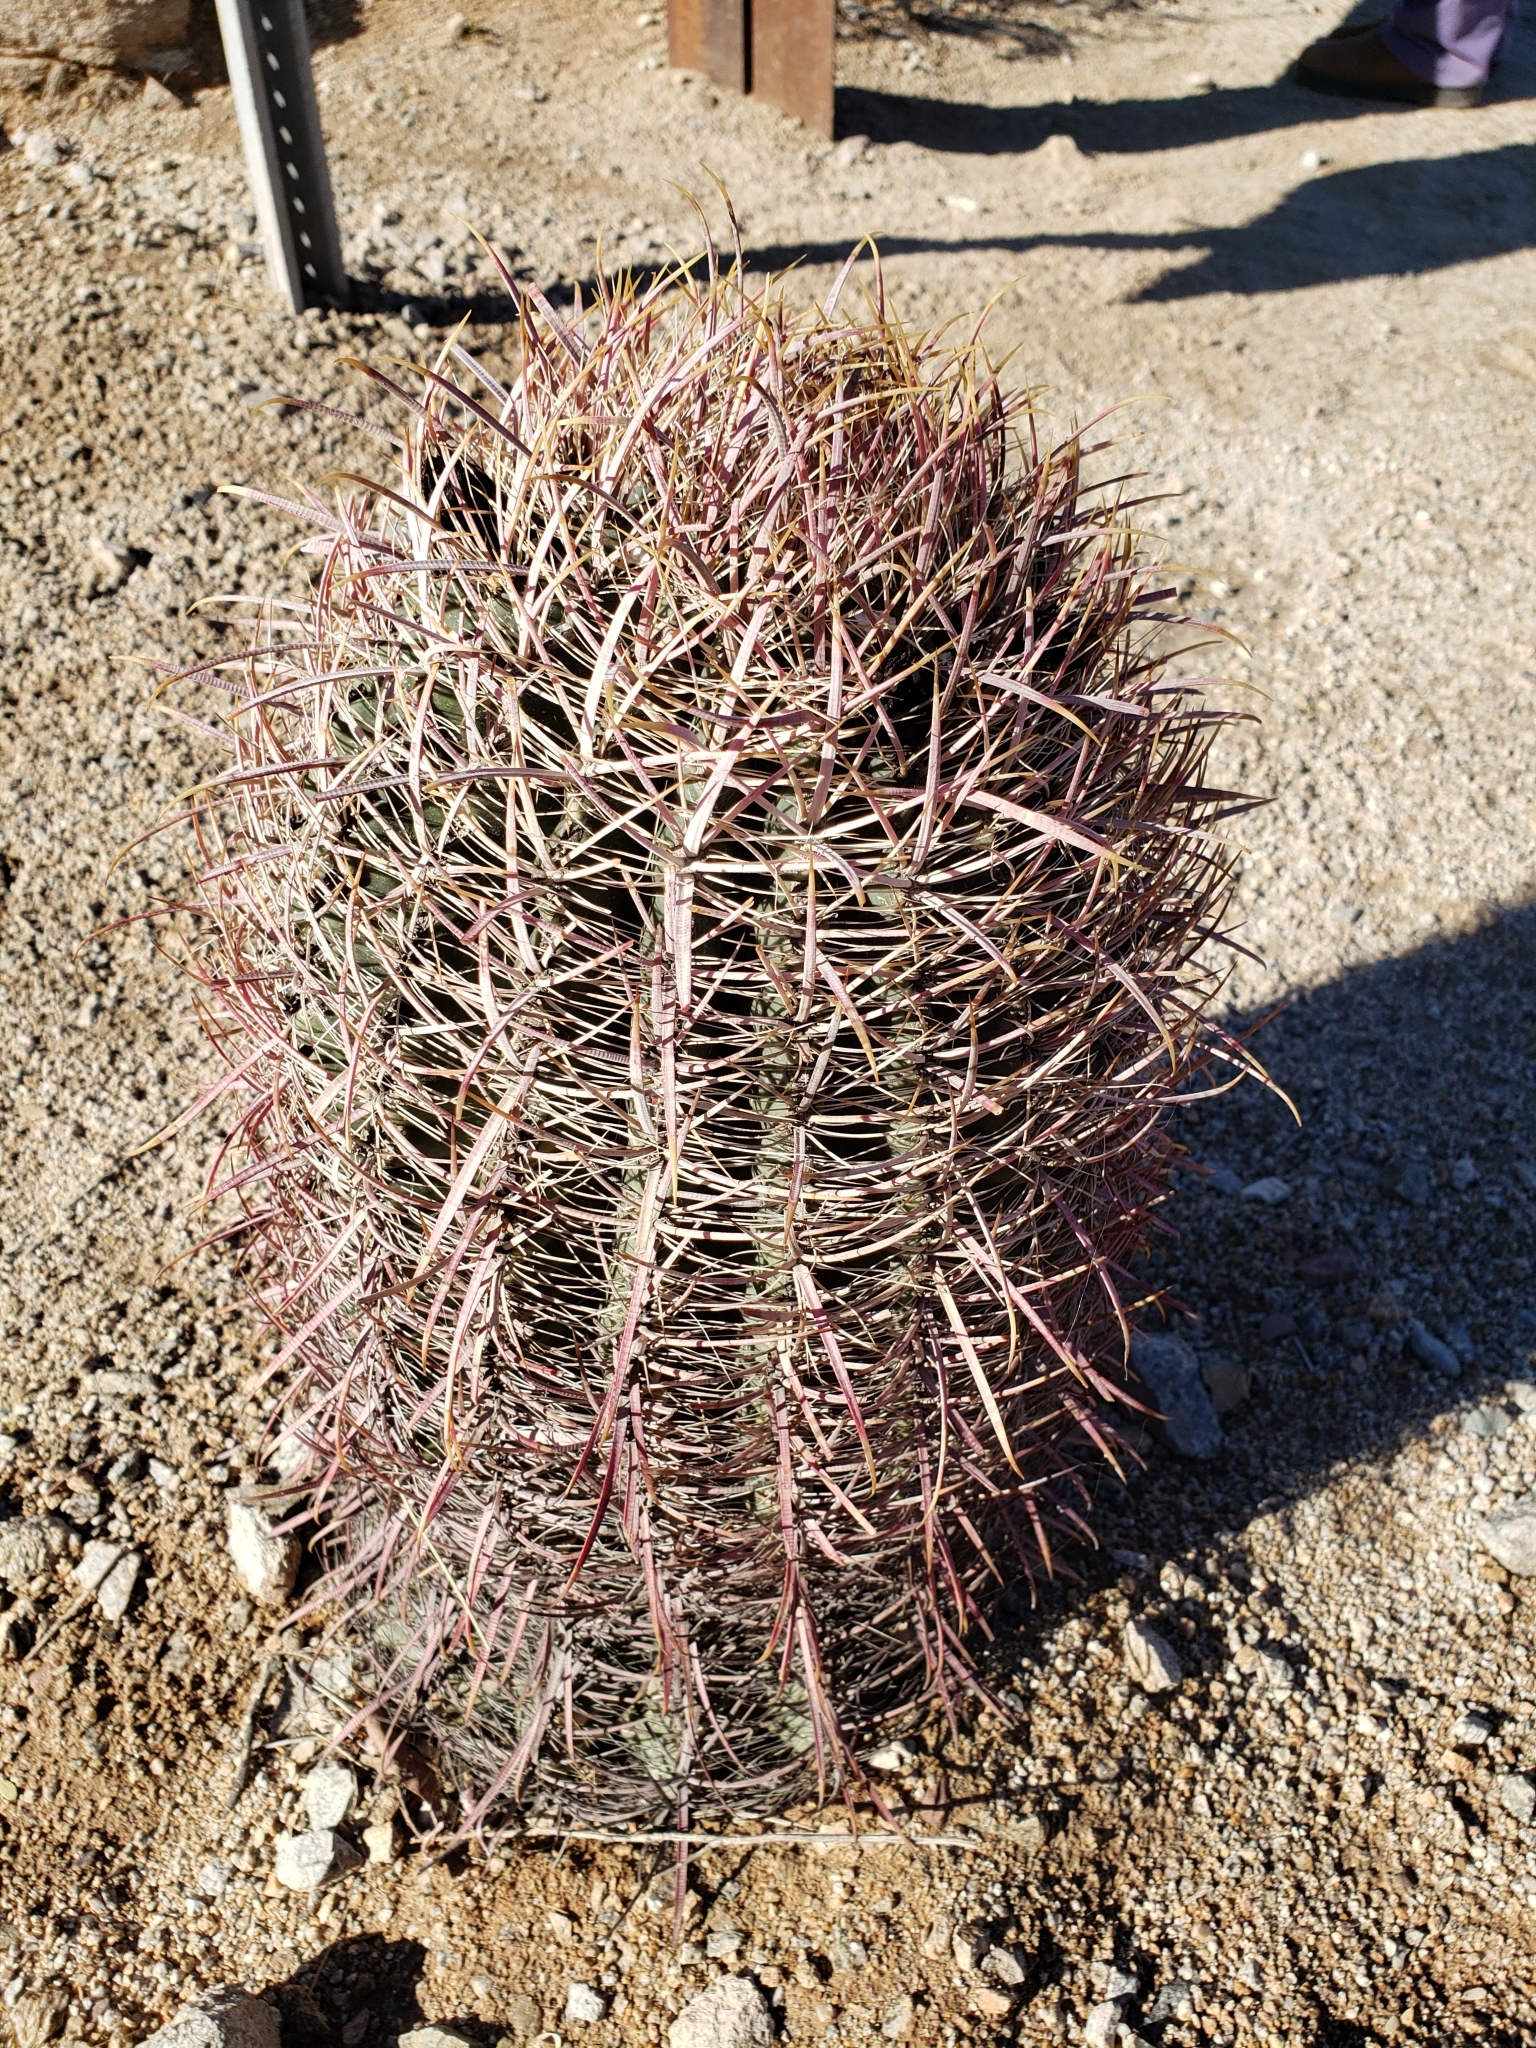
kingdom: Plantae
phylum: Tracheophyta
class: Magnoliopsida
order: Caryophyllales
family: Cactaceae
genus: Ferocactus
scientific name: Ferocactus cylindraceus
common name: California barrel cactus
